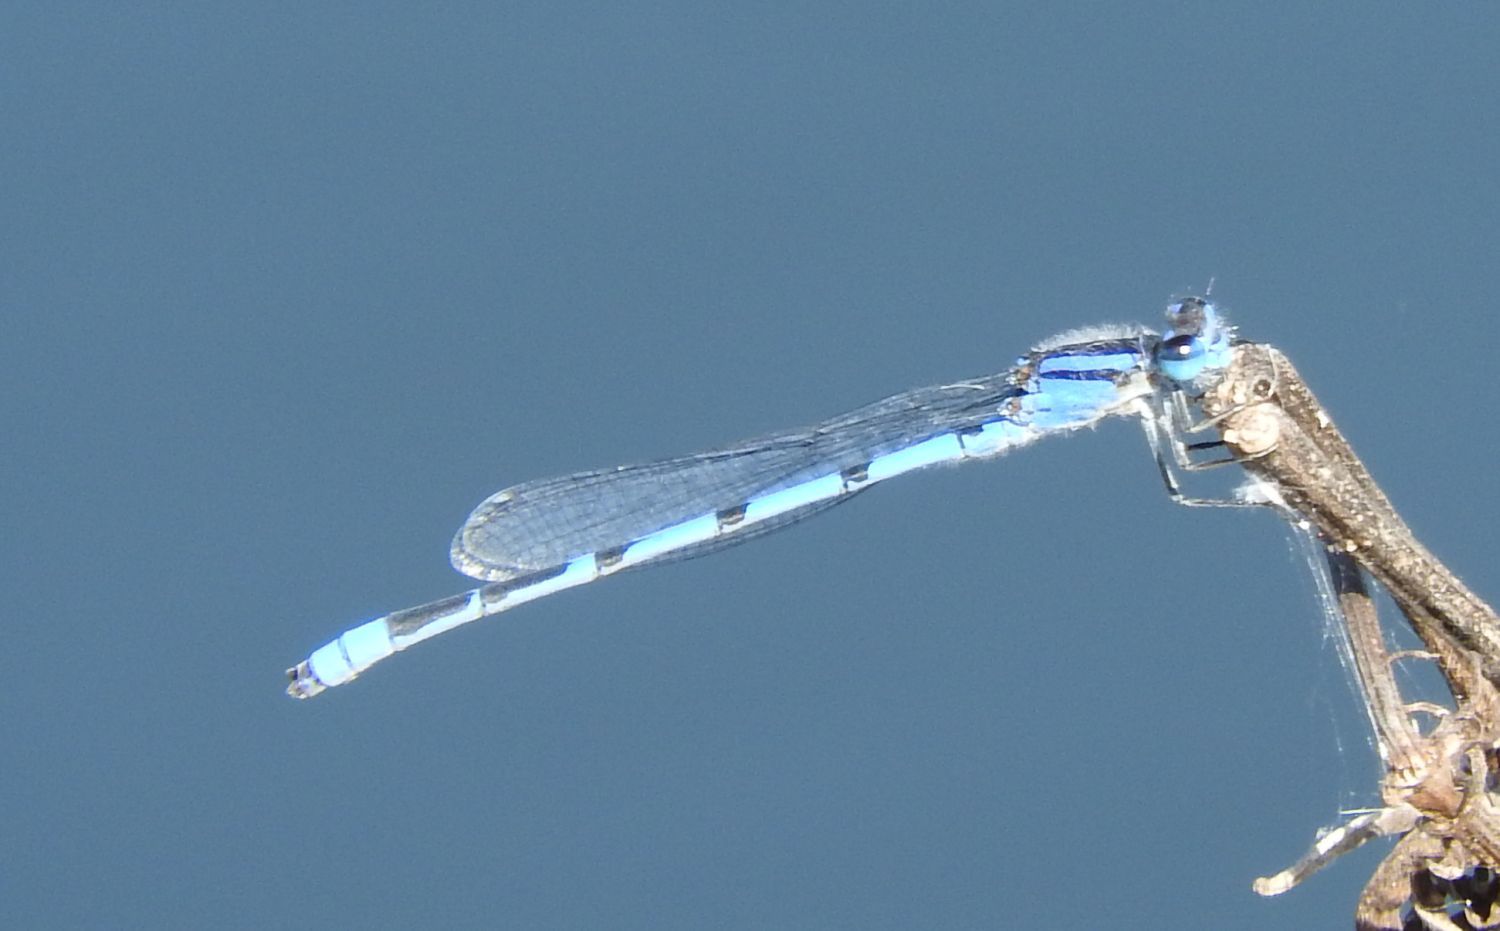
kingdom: Animalia
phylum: Arthropoda
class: Insecta
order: Odonata
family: Coenagrionidae
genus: Enallagma
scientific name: Enallagma civile
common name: Damselfly
